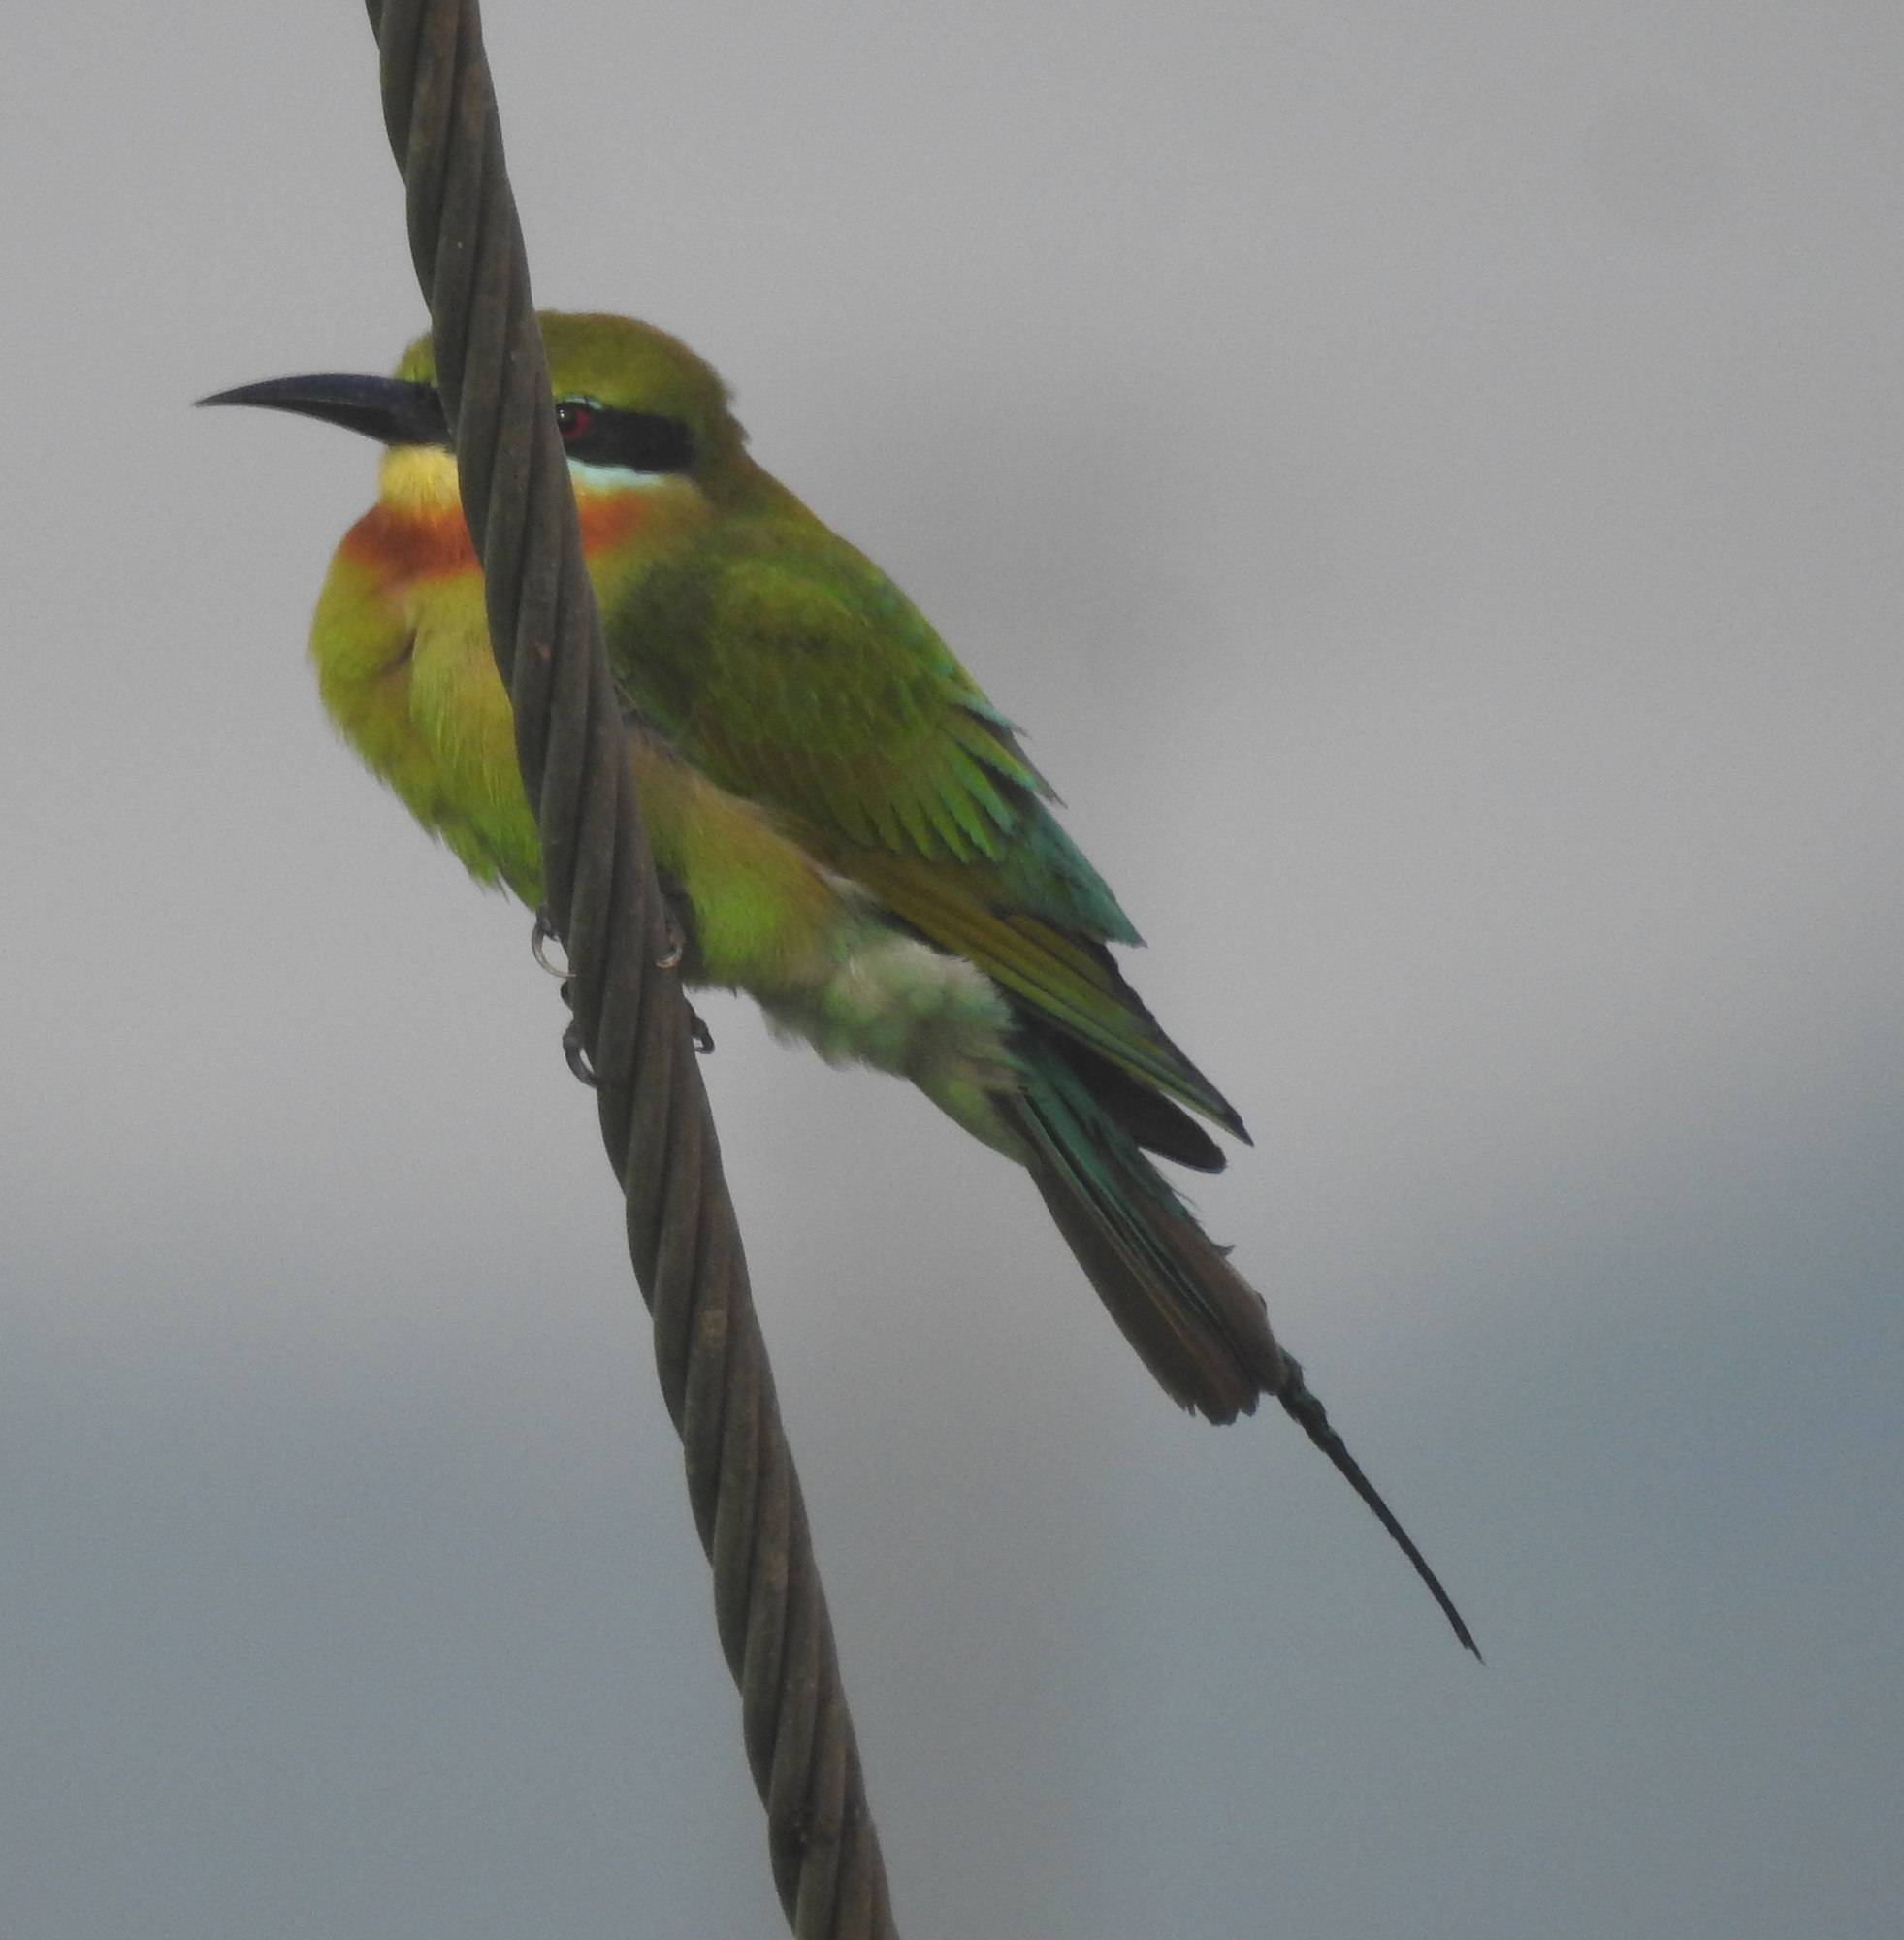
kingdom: Animalia
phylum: Chordata
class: Aves
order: Coraciiformes
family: Meropidae
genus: Merops
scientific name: Merops philippinus
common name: Blue-tailed bee-eater
